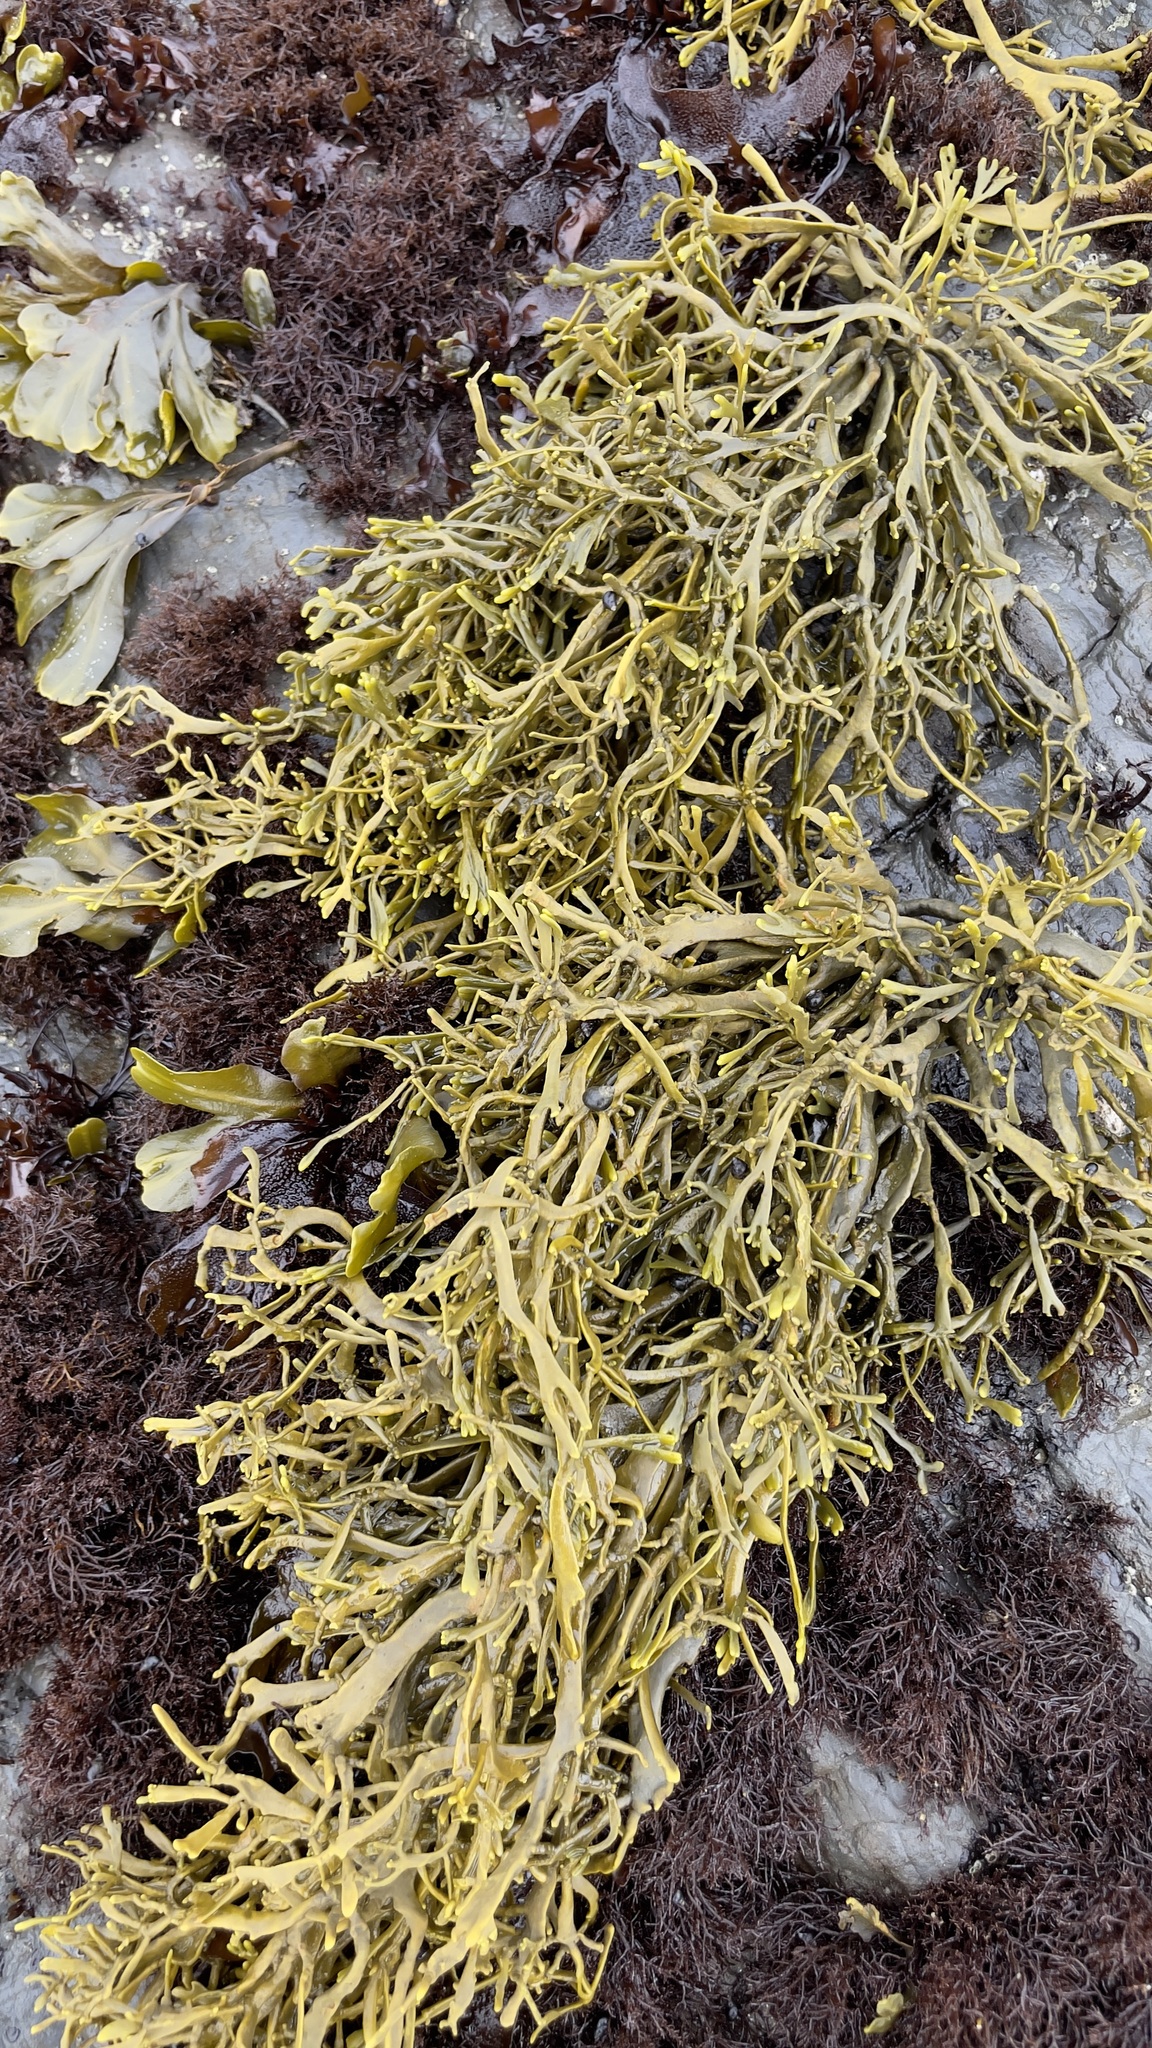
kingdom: Chromista
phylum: Ochrophyta
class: Phaeophyceae
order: Fucales
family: Fucaceae
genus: Silvetia
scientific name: Silvetia
